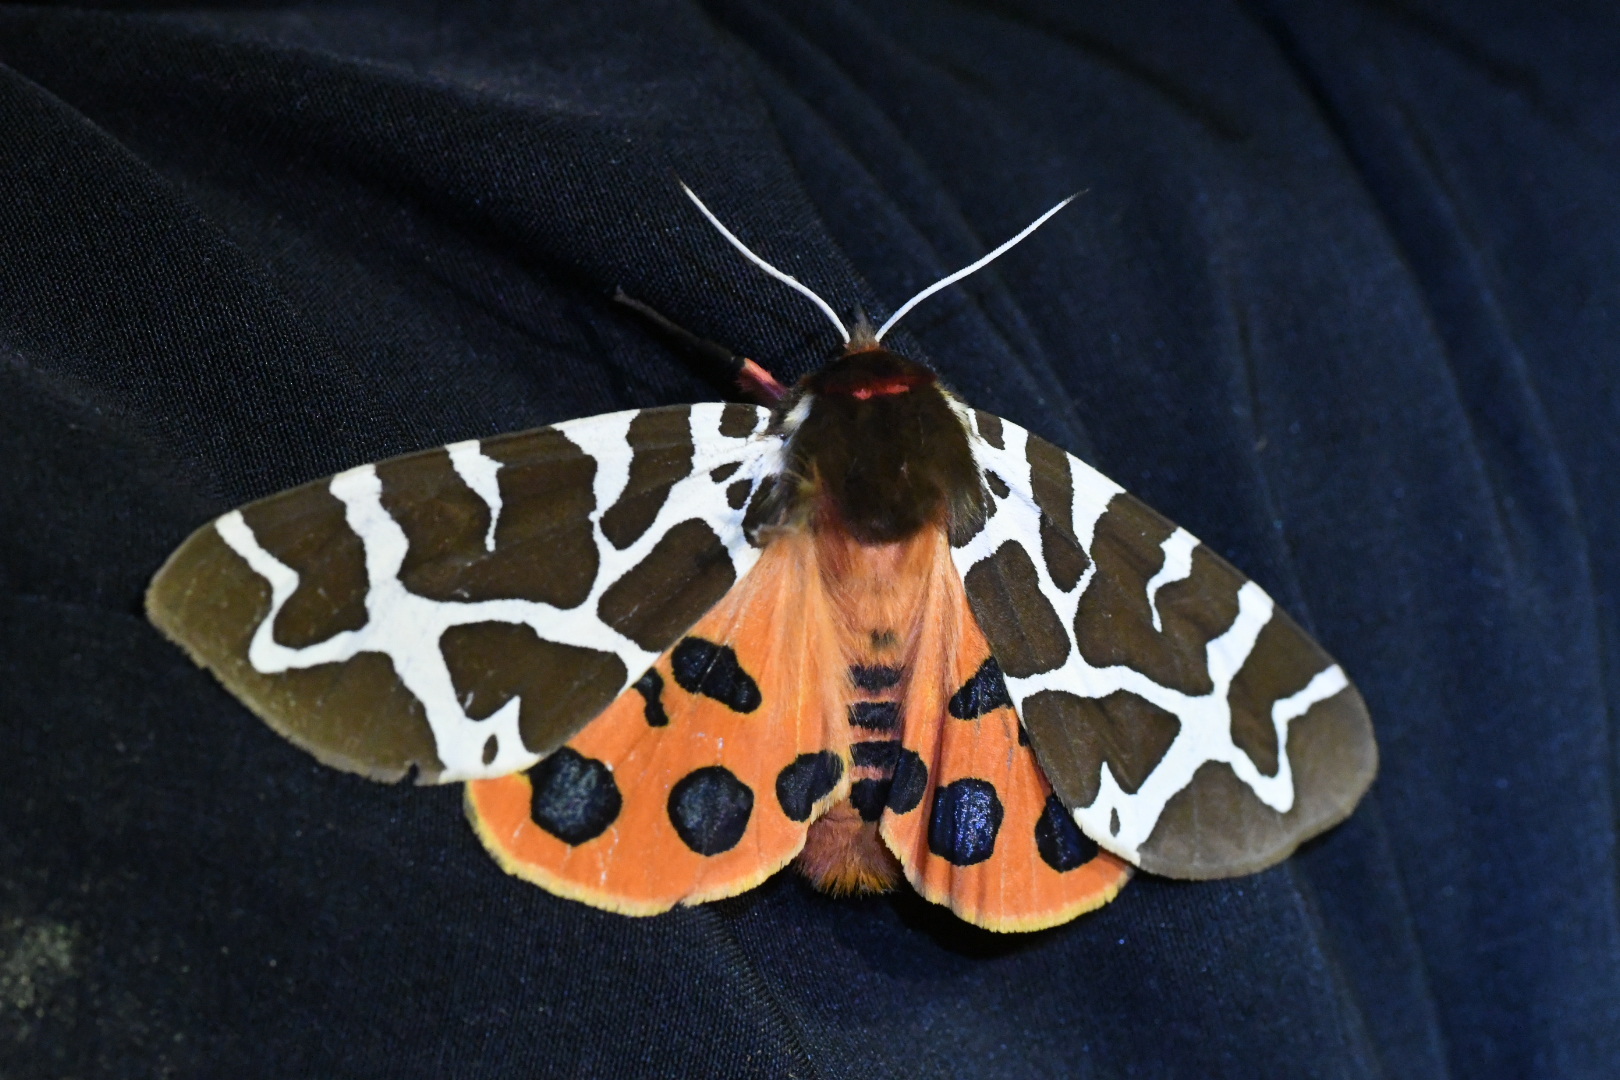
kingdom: Animalia
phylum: Arthropoda
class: Insecta
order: Lepidoptera
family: Erebidae
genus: Arctia
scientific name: Arctia caja
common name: Garden tiger
